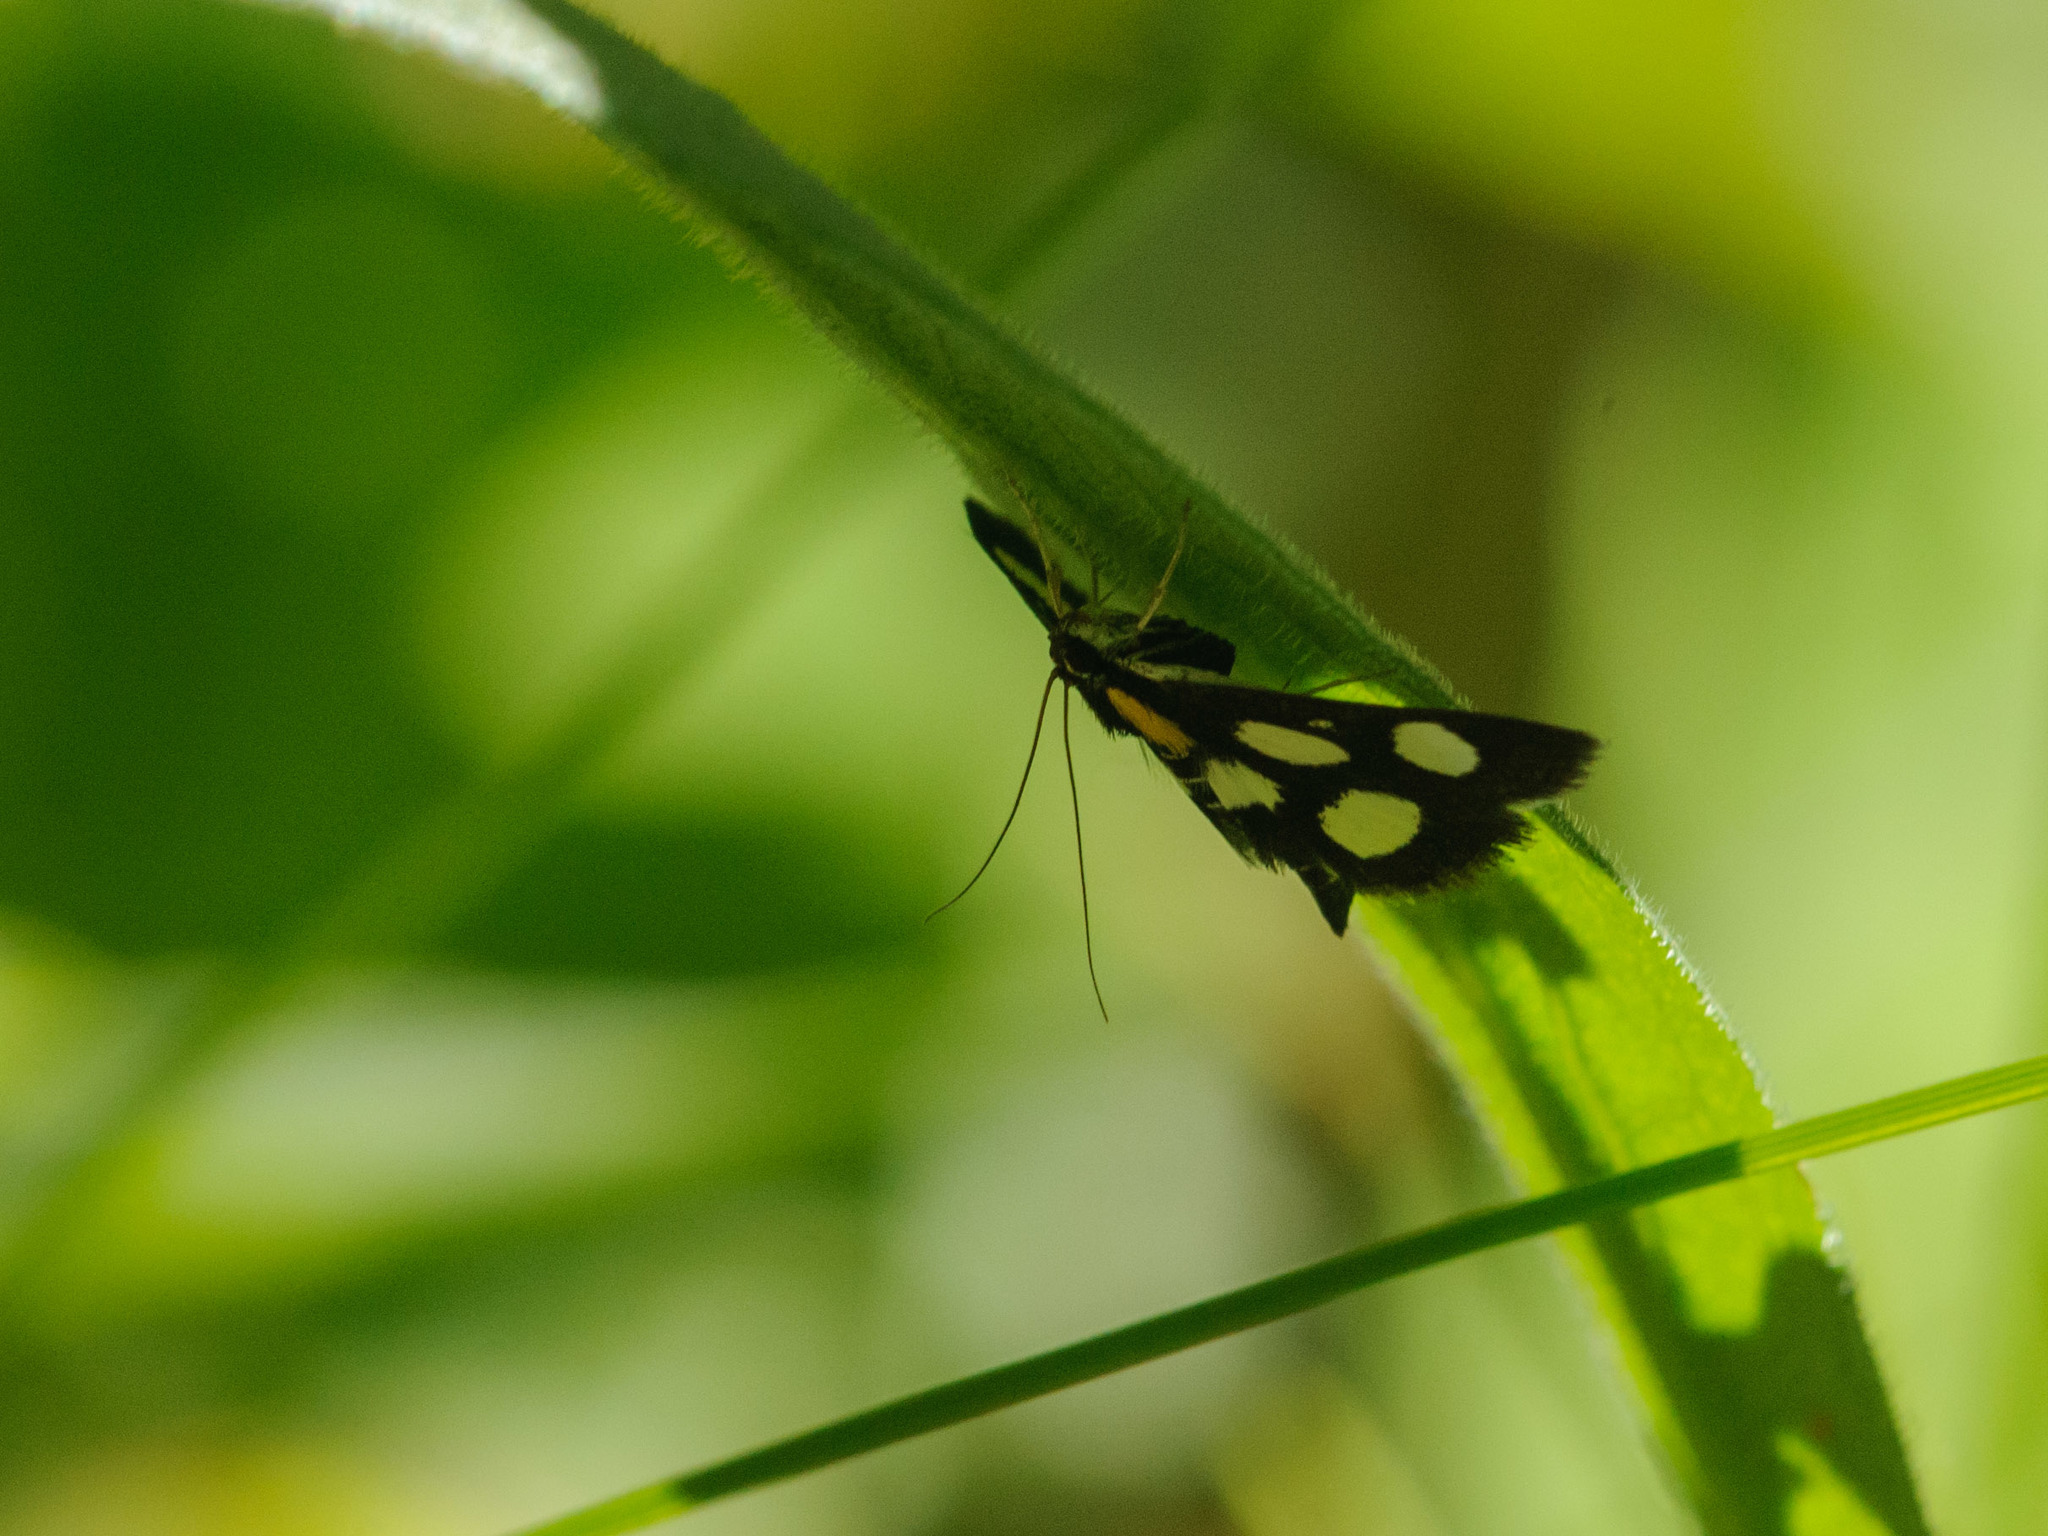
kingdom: Animalia
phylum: Arthropoda
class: Insecta
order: Lepidoptera
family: Crambidae
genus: Anania
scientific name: Anania funebris
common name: White-spotted sable moth
